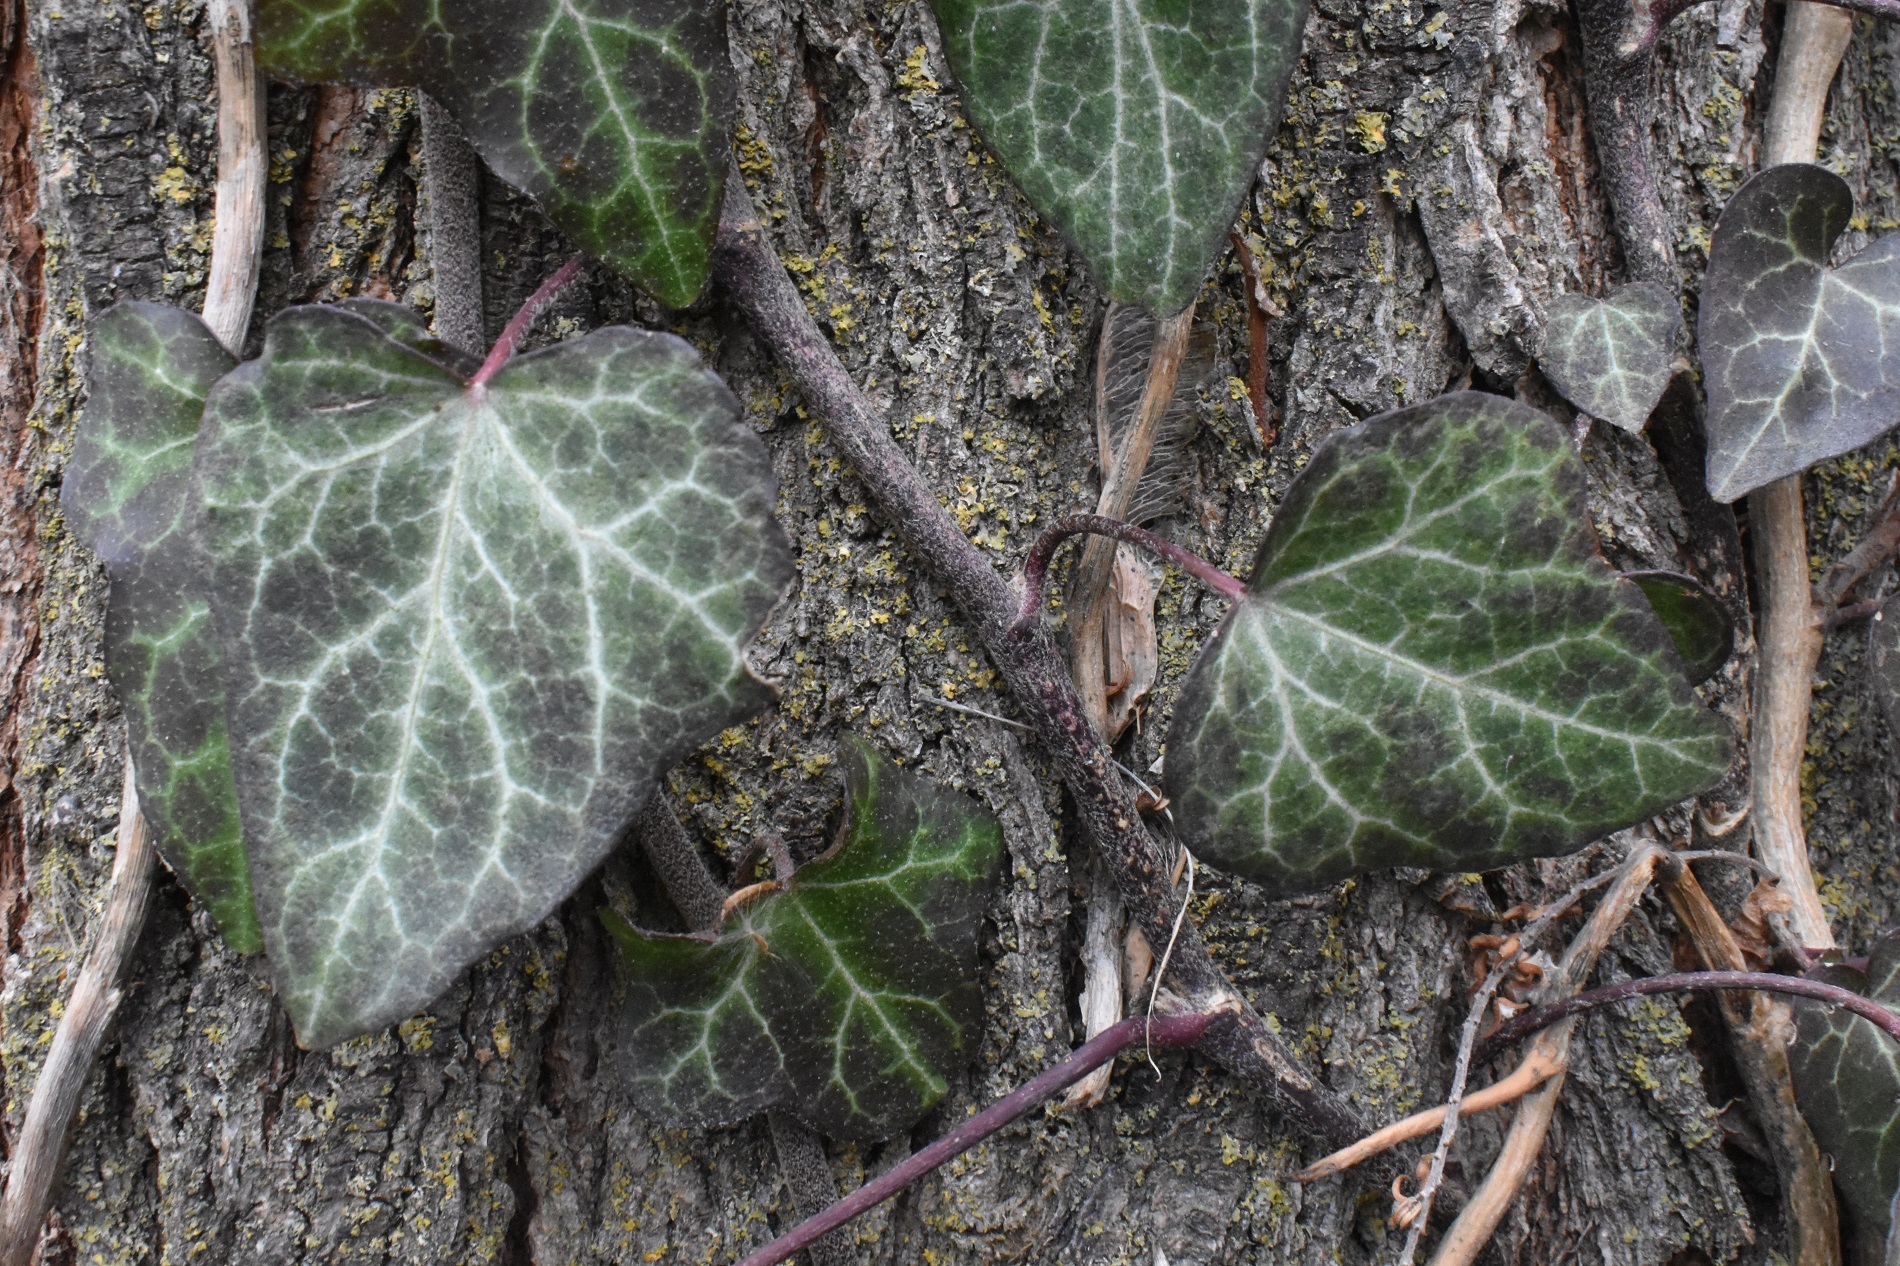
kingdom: Plantae
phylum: Tracheophyta
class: Magnoliopsida
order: Apiales
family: Araliaceae
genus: Hedera
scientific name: Hedera helix
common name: Ivy
